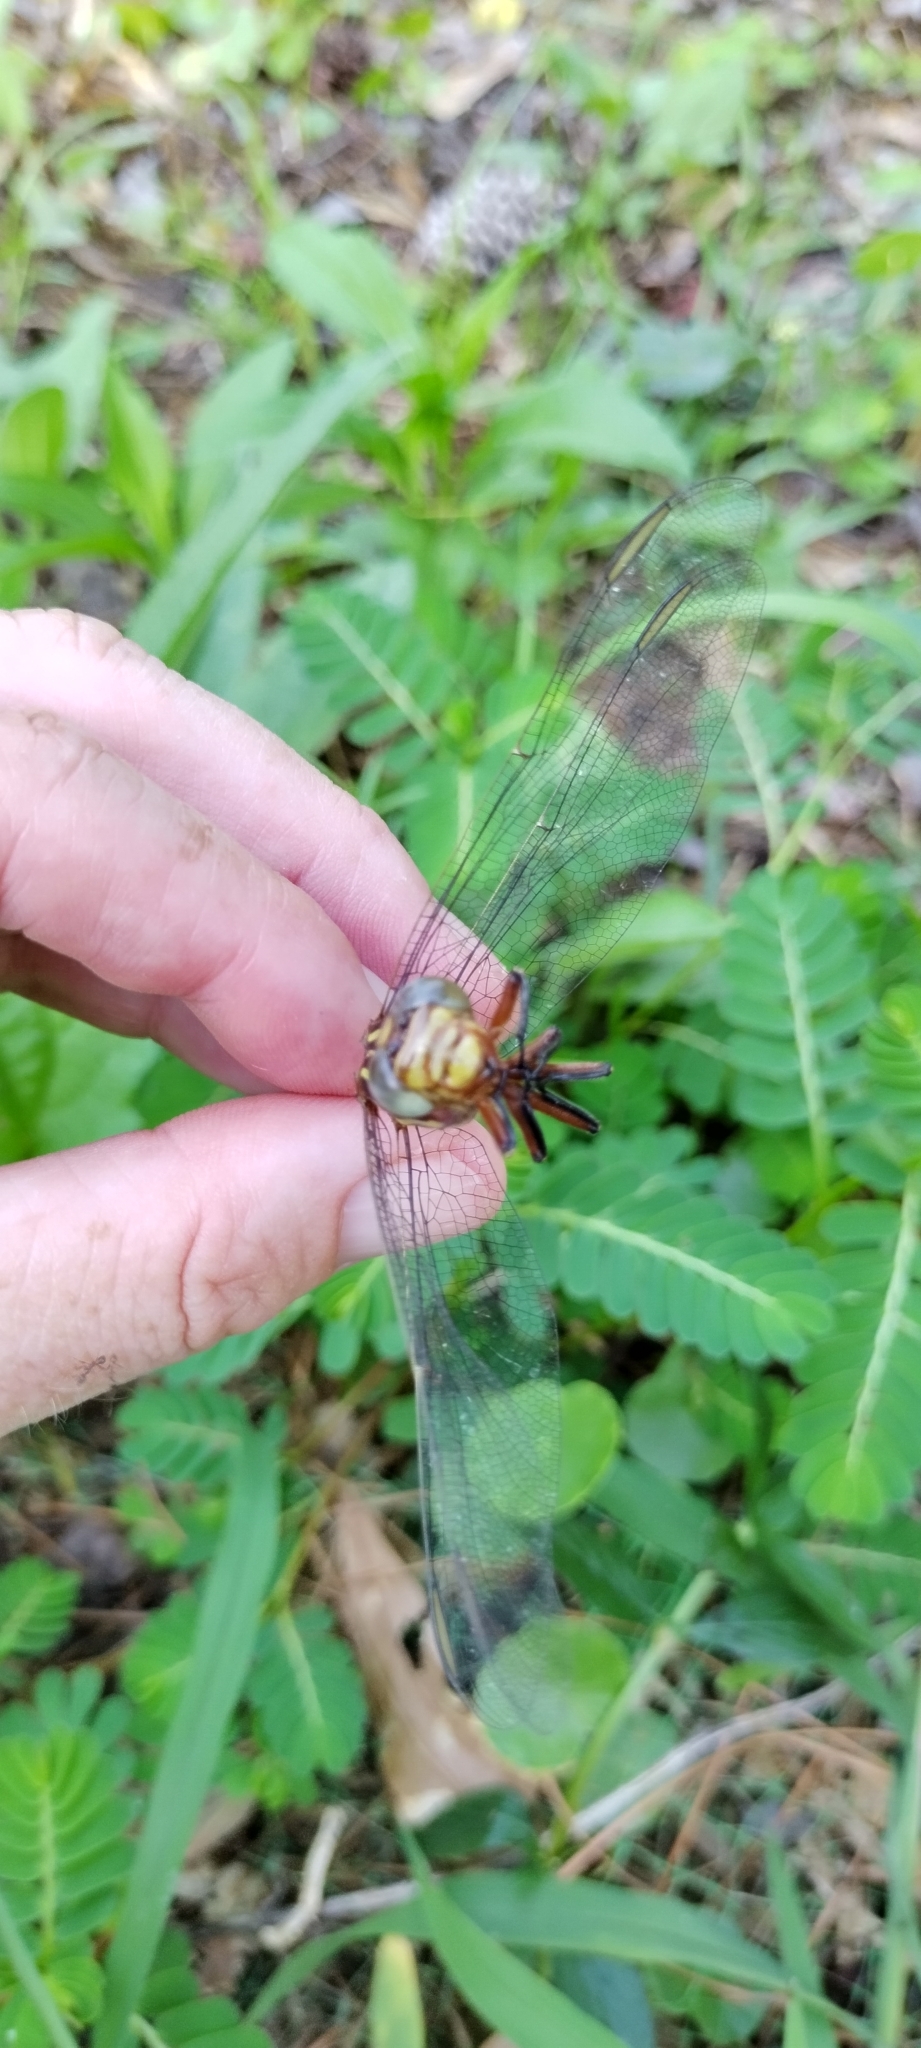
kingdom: Animalia
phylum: Arthropoda
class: Insecta
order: Odonata
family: Gomphidae
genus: Aphylla
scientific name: Aphylla williamsoni
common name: Two-striped forceptail
